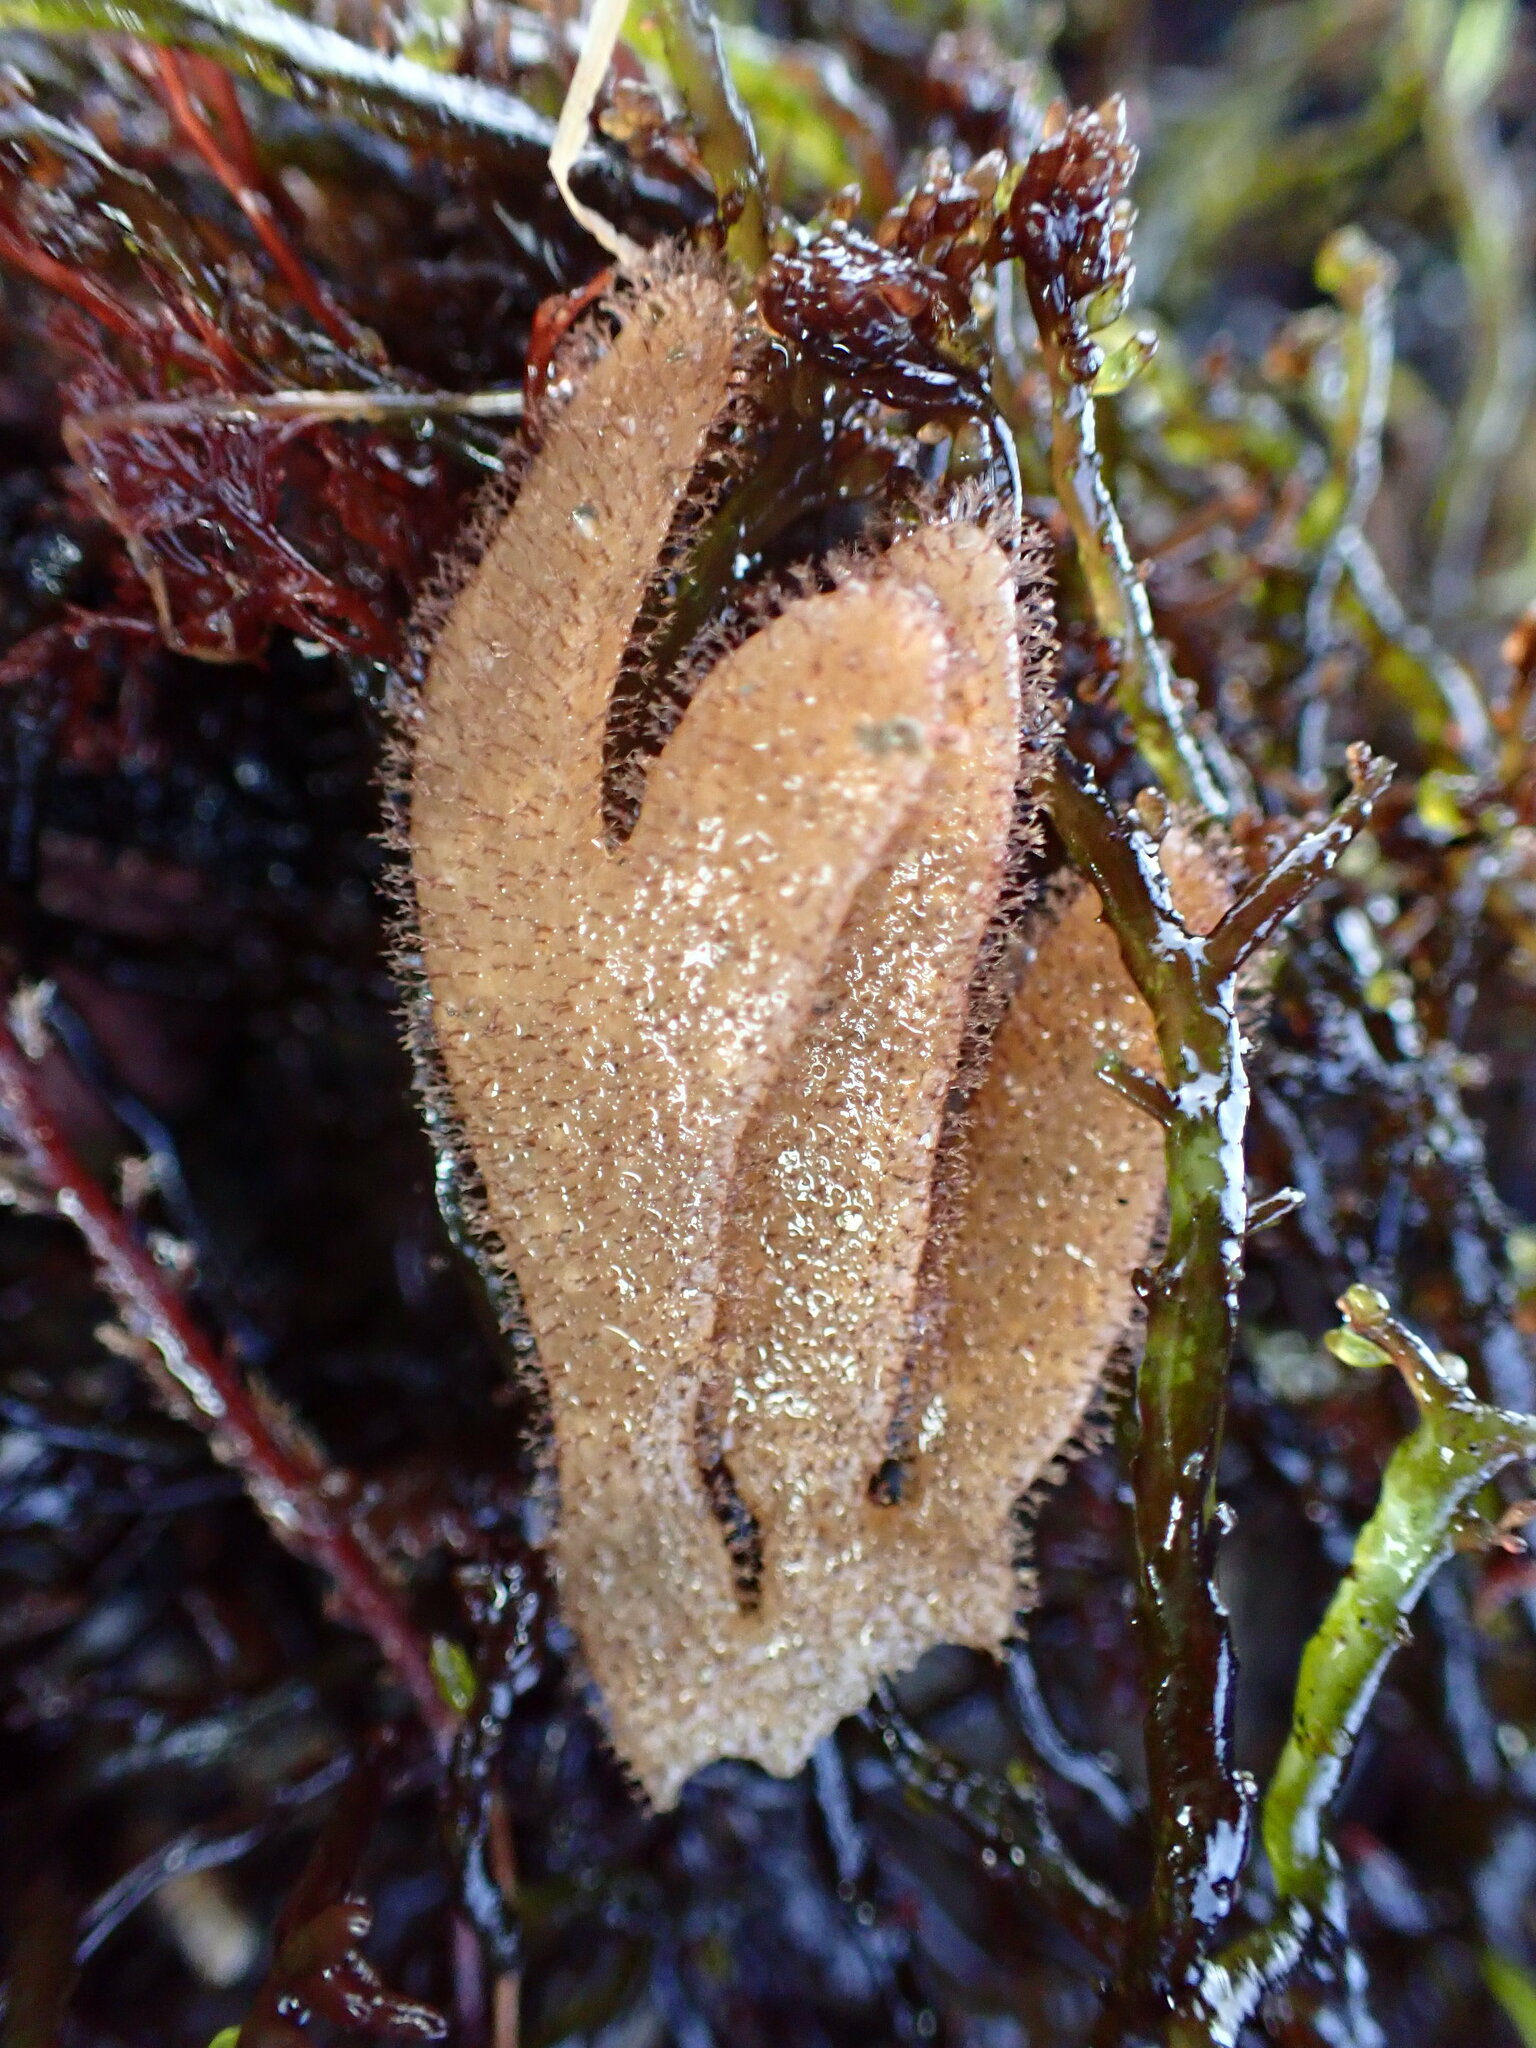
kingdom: Animalia
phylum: Bryozoa
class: Gymnolaemata
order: Ctenostomatida
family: Flustrellidridae
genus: Flustrellidra
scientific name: Flustrellidra corniculata
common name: Spiny leather bryozoan
